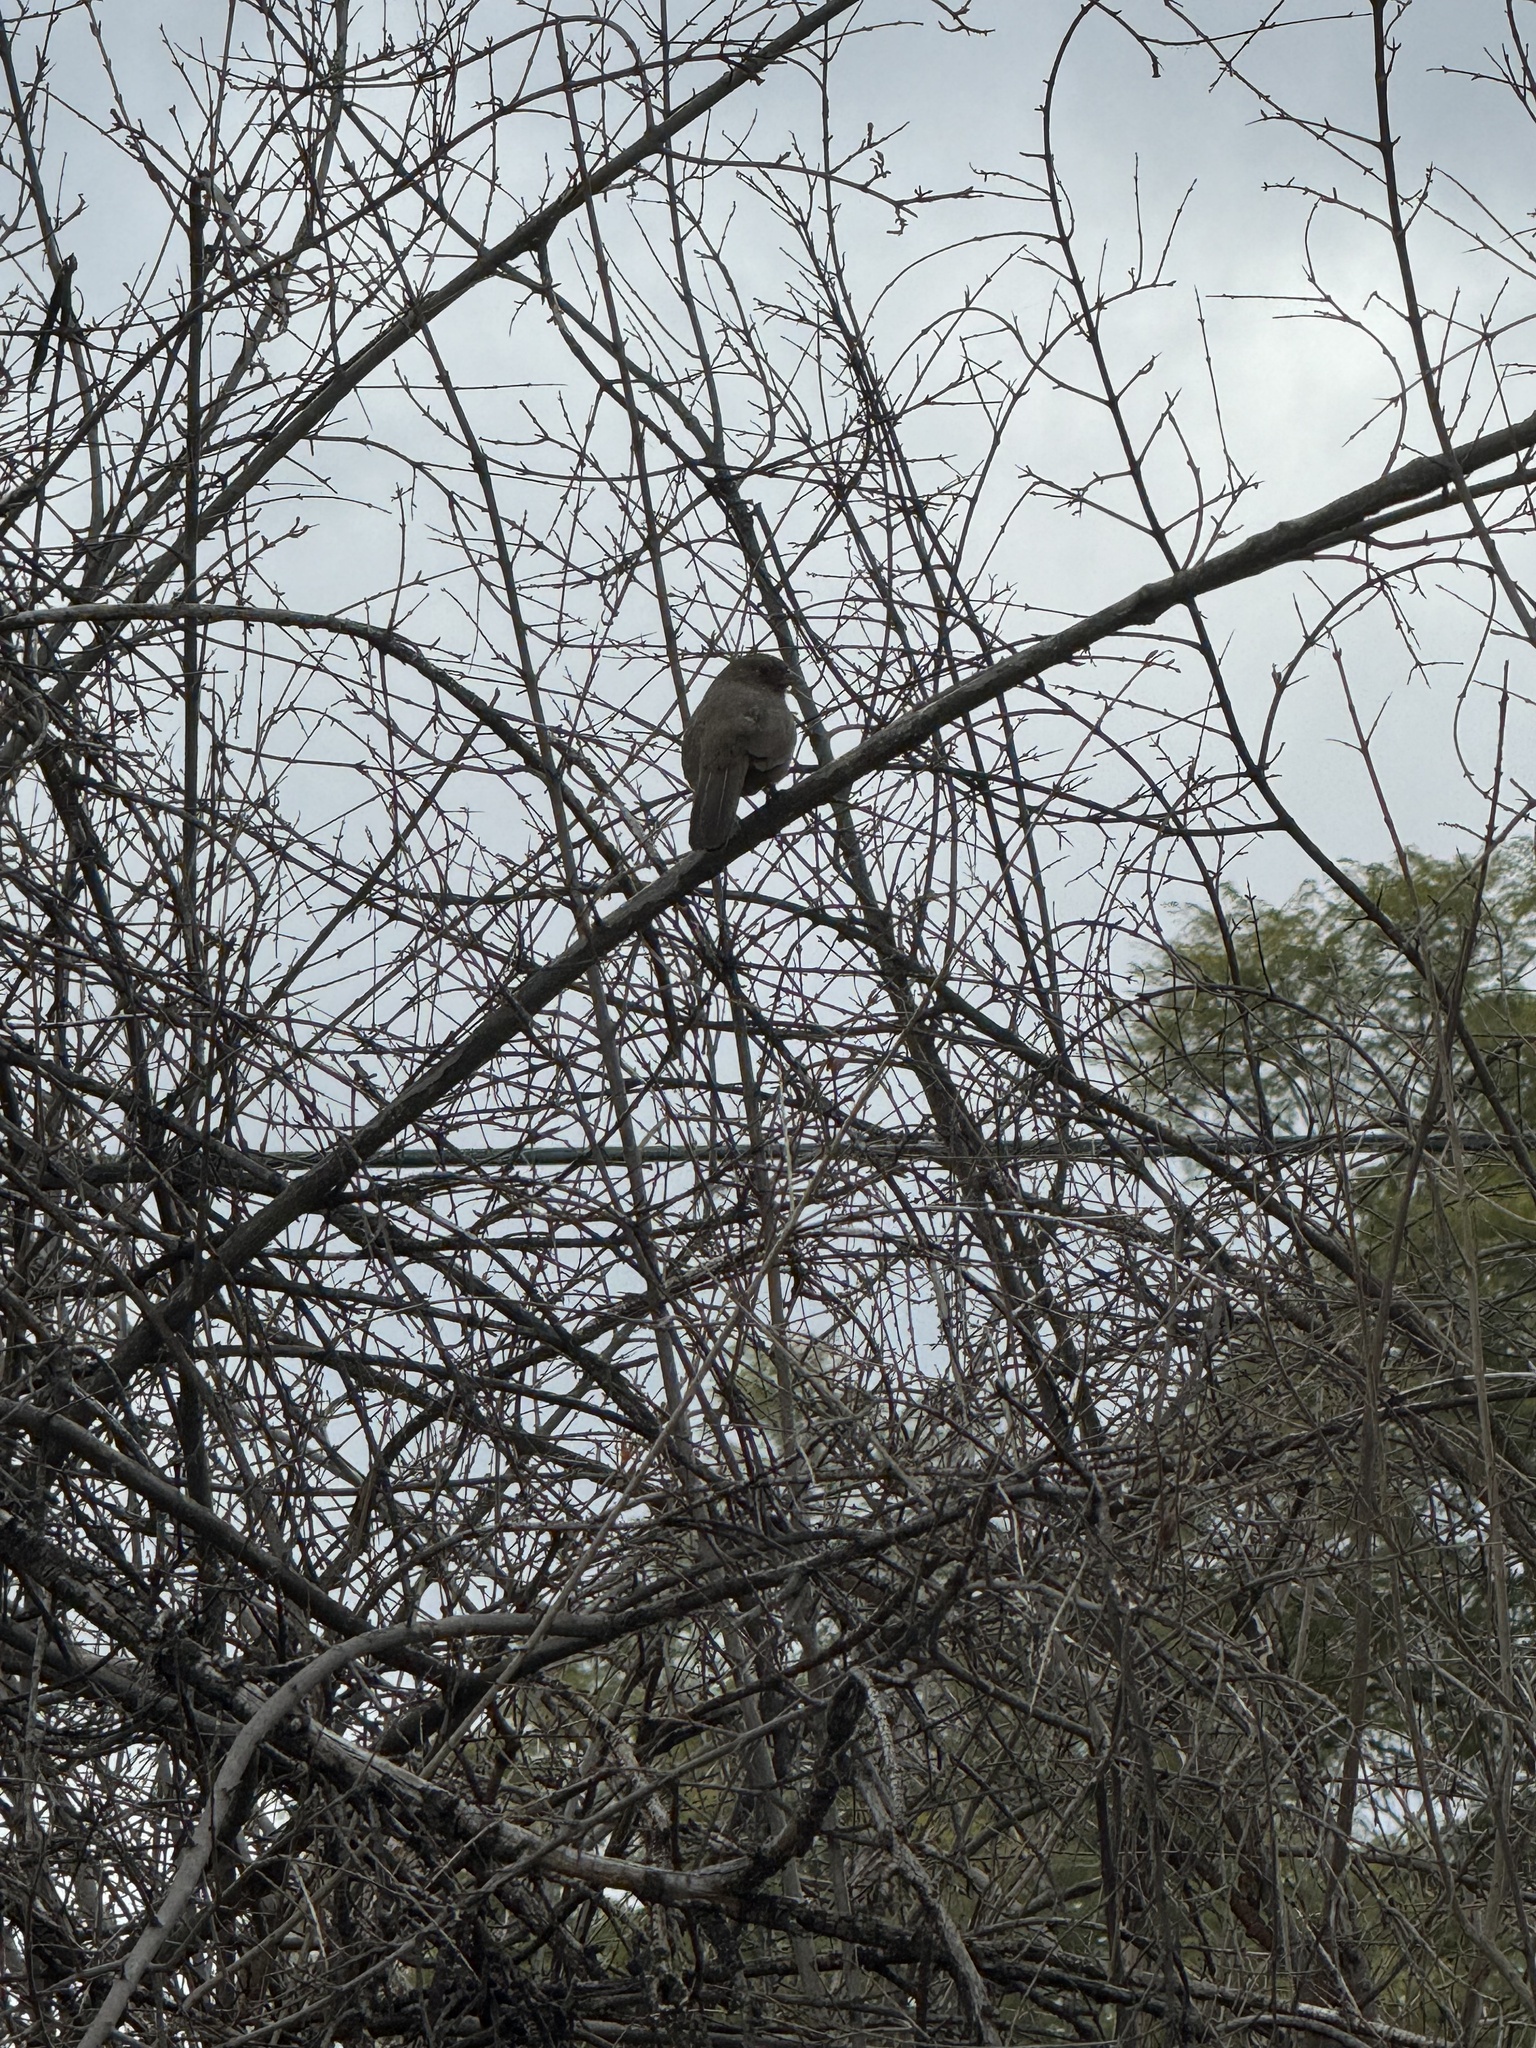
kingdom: Animalia
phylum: Chordata
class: Aves
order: Passeriformes
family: Passerellidae
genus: Melozone
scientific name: Melozone crissalis
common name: California towhee
